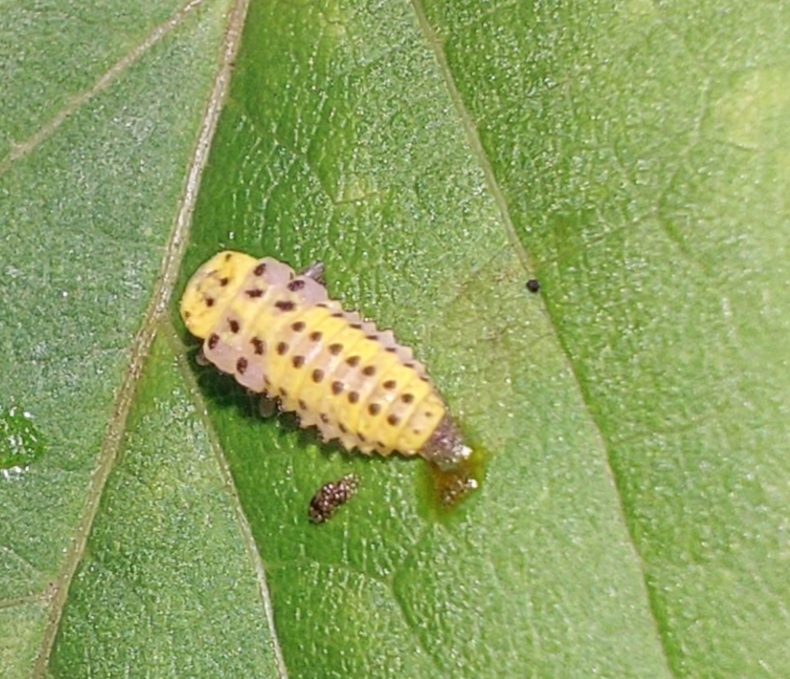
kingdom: Animalia
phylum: Arthropoda
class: Insecta
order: Coleoptera
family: Coccinellidae
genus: Halyzia
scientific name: Halyzia sedecimguttata
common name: Orange ladybird
